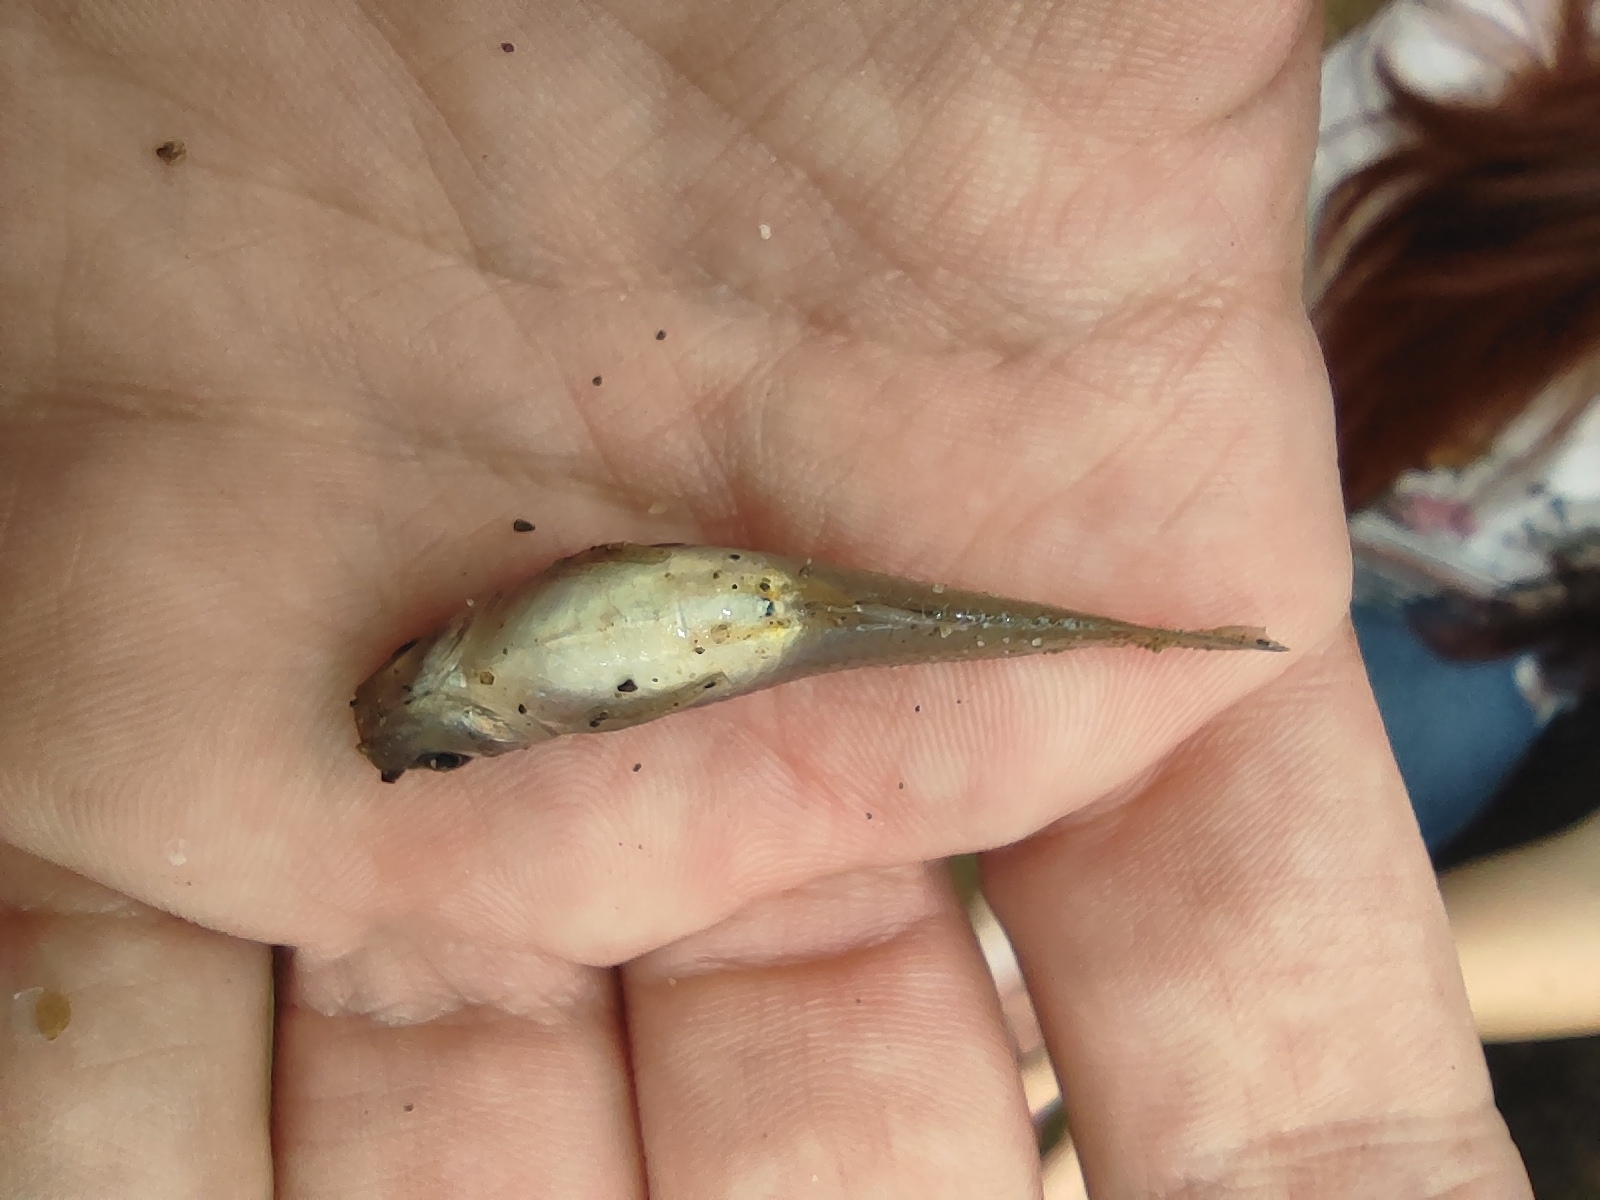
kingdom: Animalia
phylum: Chordata
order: Cyprinodontiformes
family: Poeciliidae
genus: Poecilia
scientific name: Poecilia caucana
